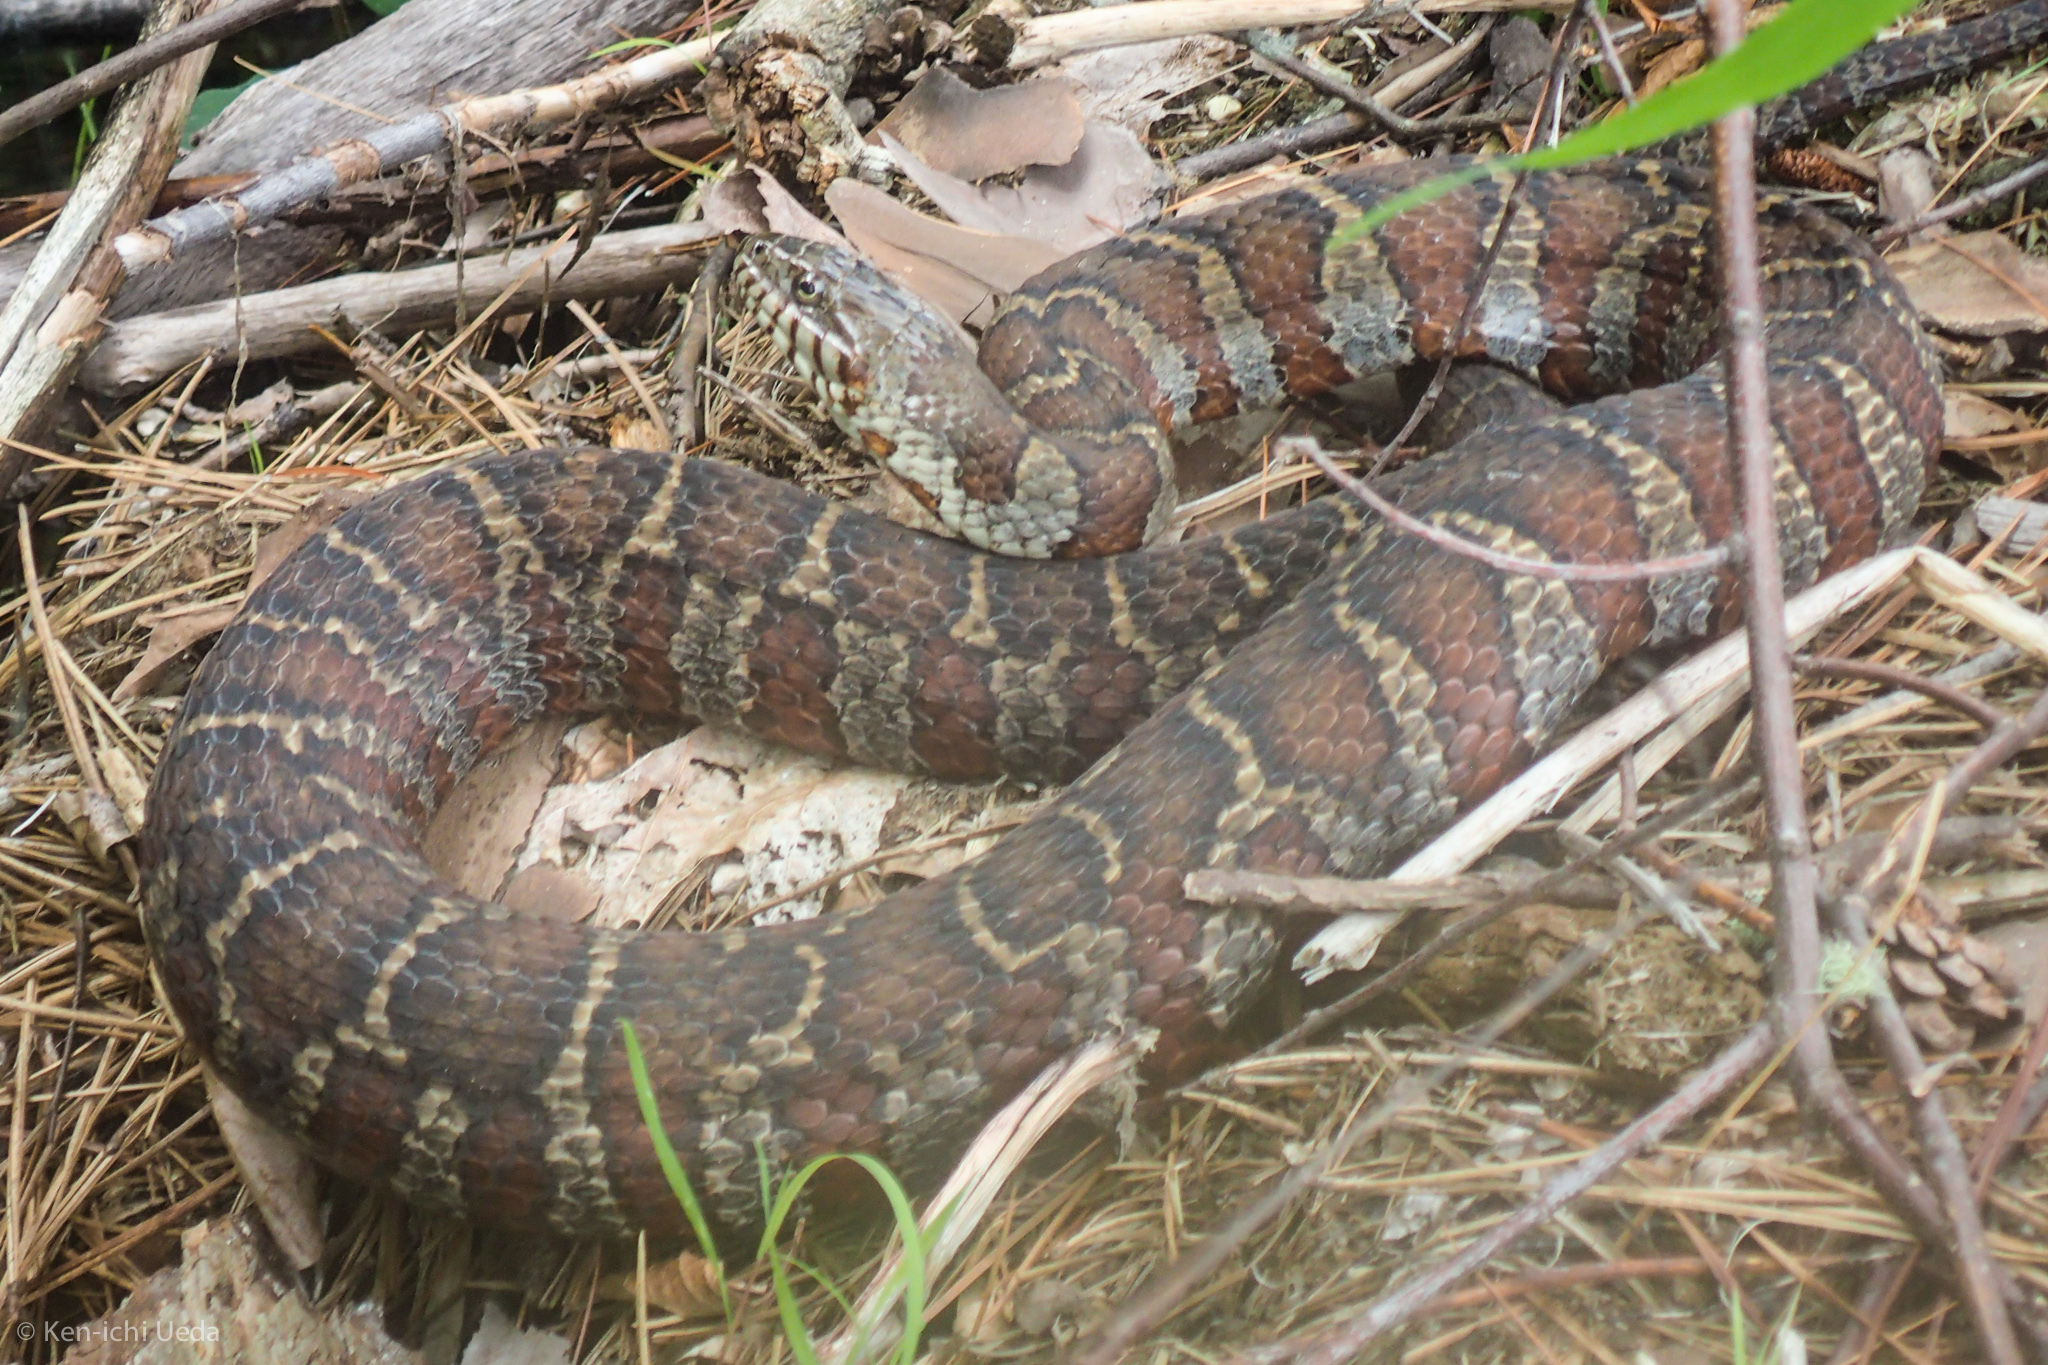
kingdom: Animalia
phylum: Chordata
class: Squamata
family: Colubridae
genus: Nerodia
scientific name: Nerodia sipedon
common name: Northern water snake
